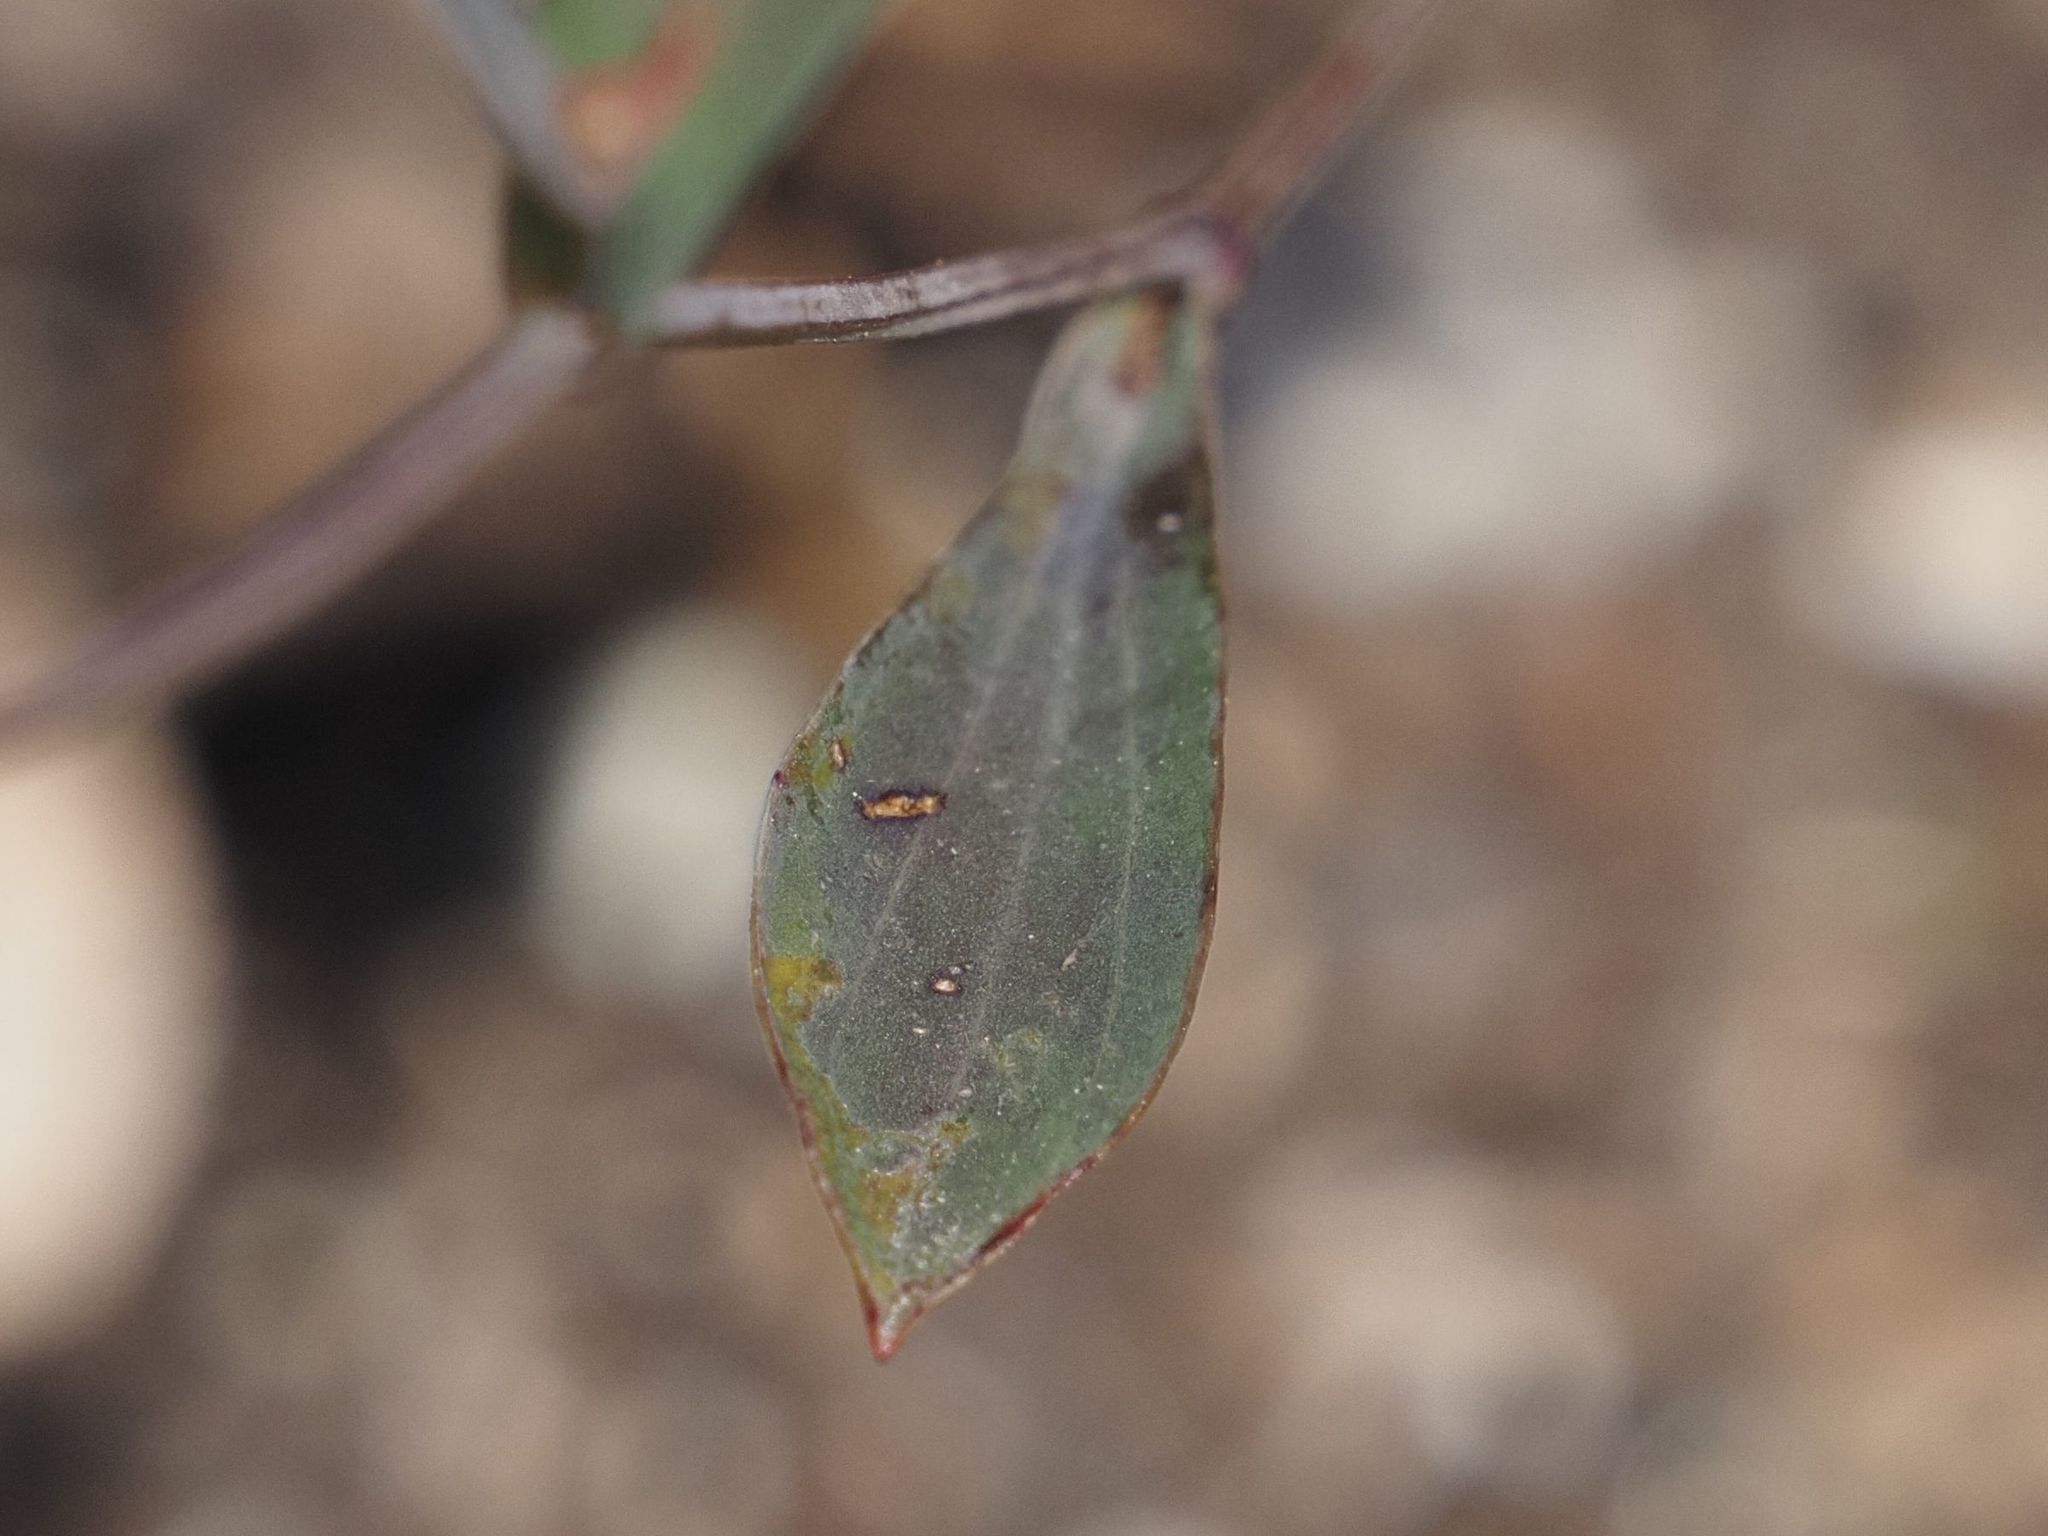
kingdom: Plantae
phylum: Tracheophyta
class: Magnoliopsida
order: Apiales
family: Apiaceae
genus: Bupleurum
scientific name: Bupleurum falcatum
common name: Sickle-leaved hare's-ear
